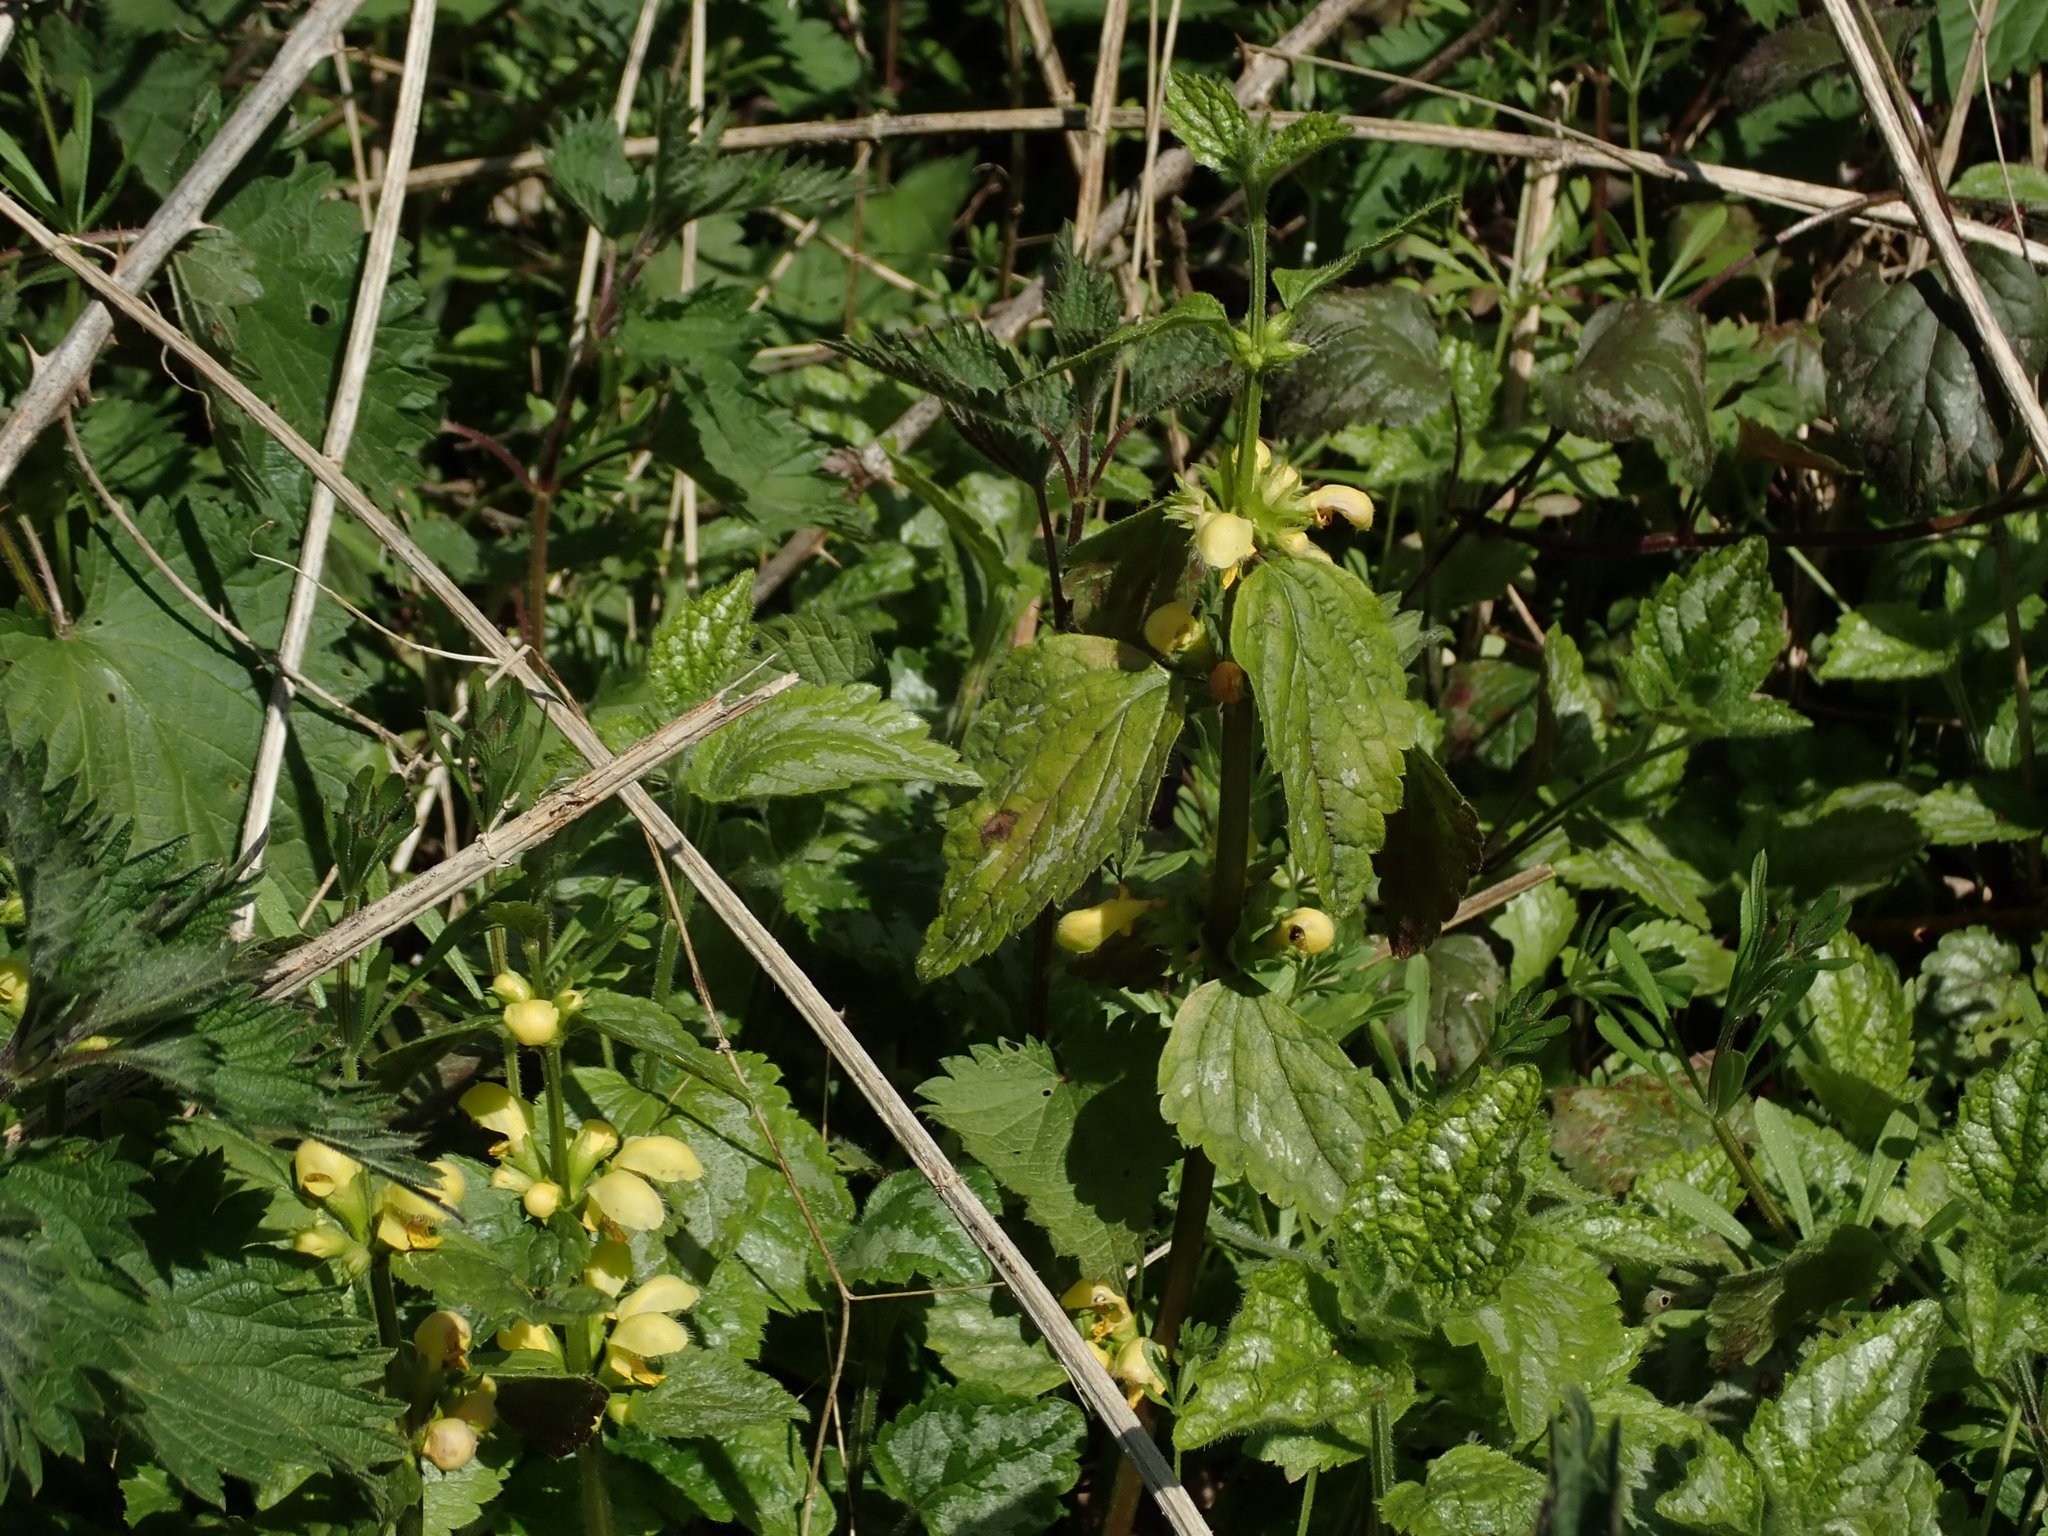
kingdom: Plantae
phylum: Tracheophyta
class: Magnoliopsida
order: Lamiales
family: Lamiaceae
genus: Lamium
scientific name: Lamium galeobdolon
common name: Yellow archangel
